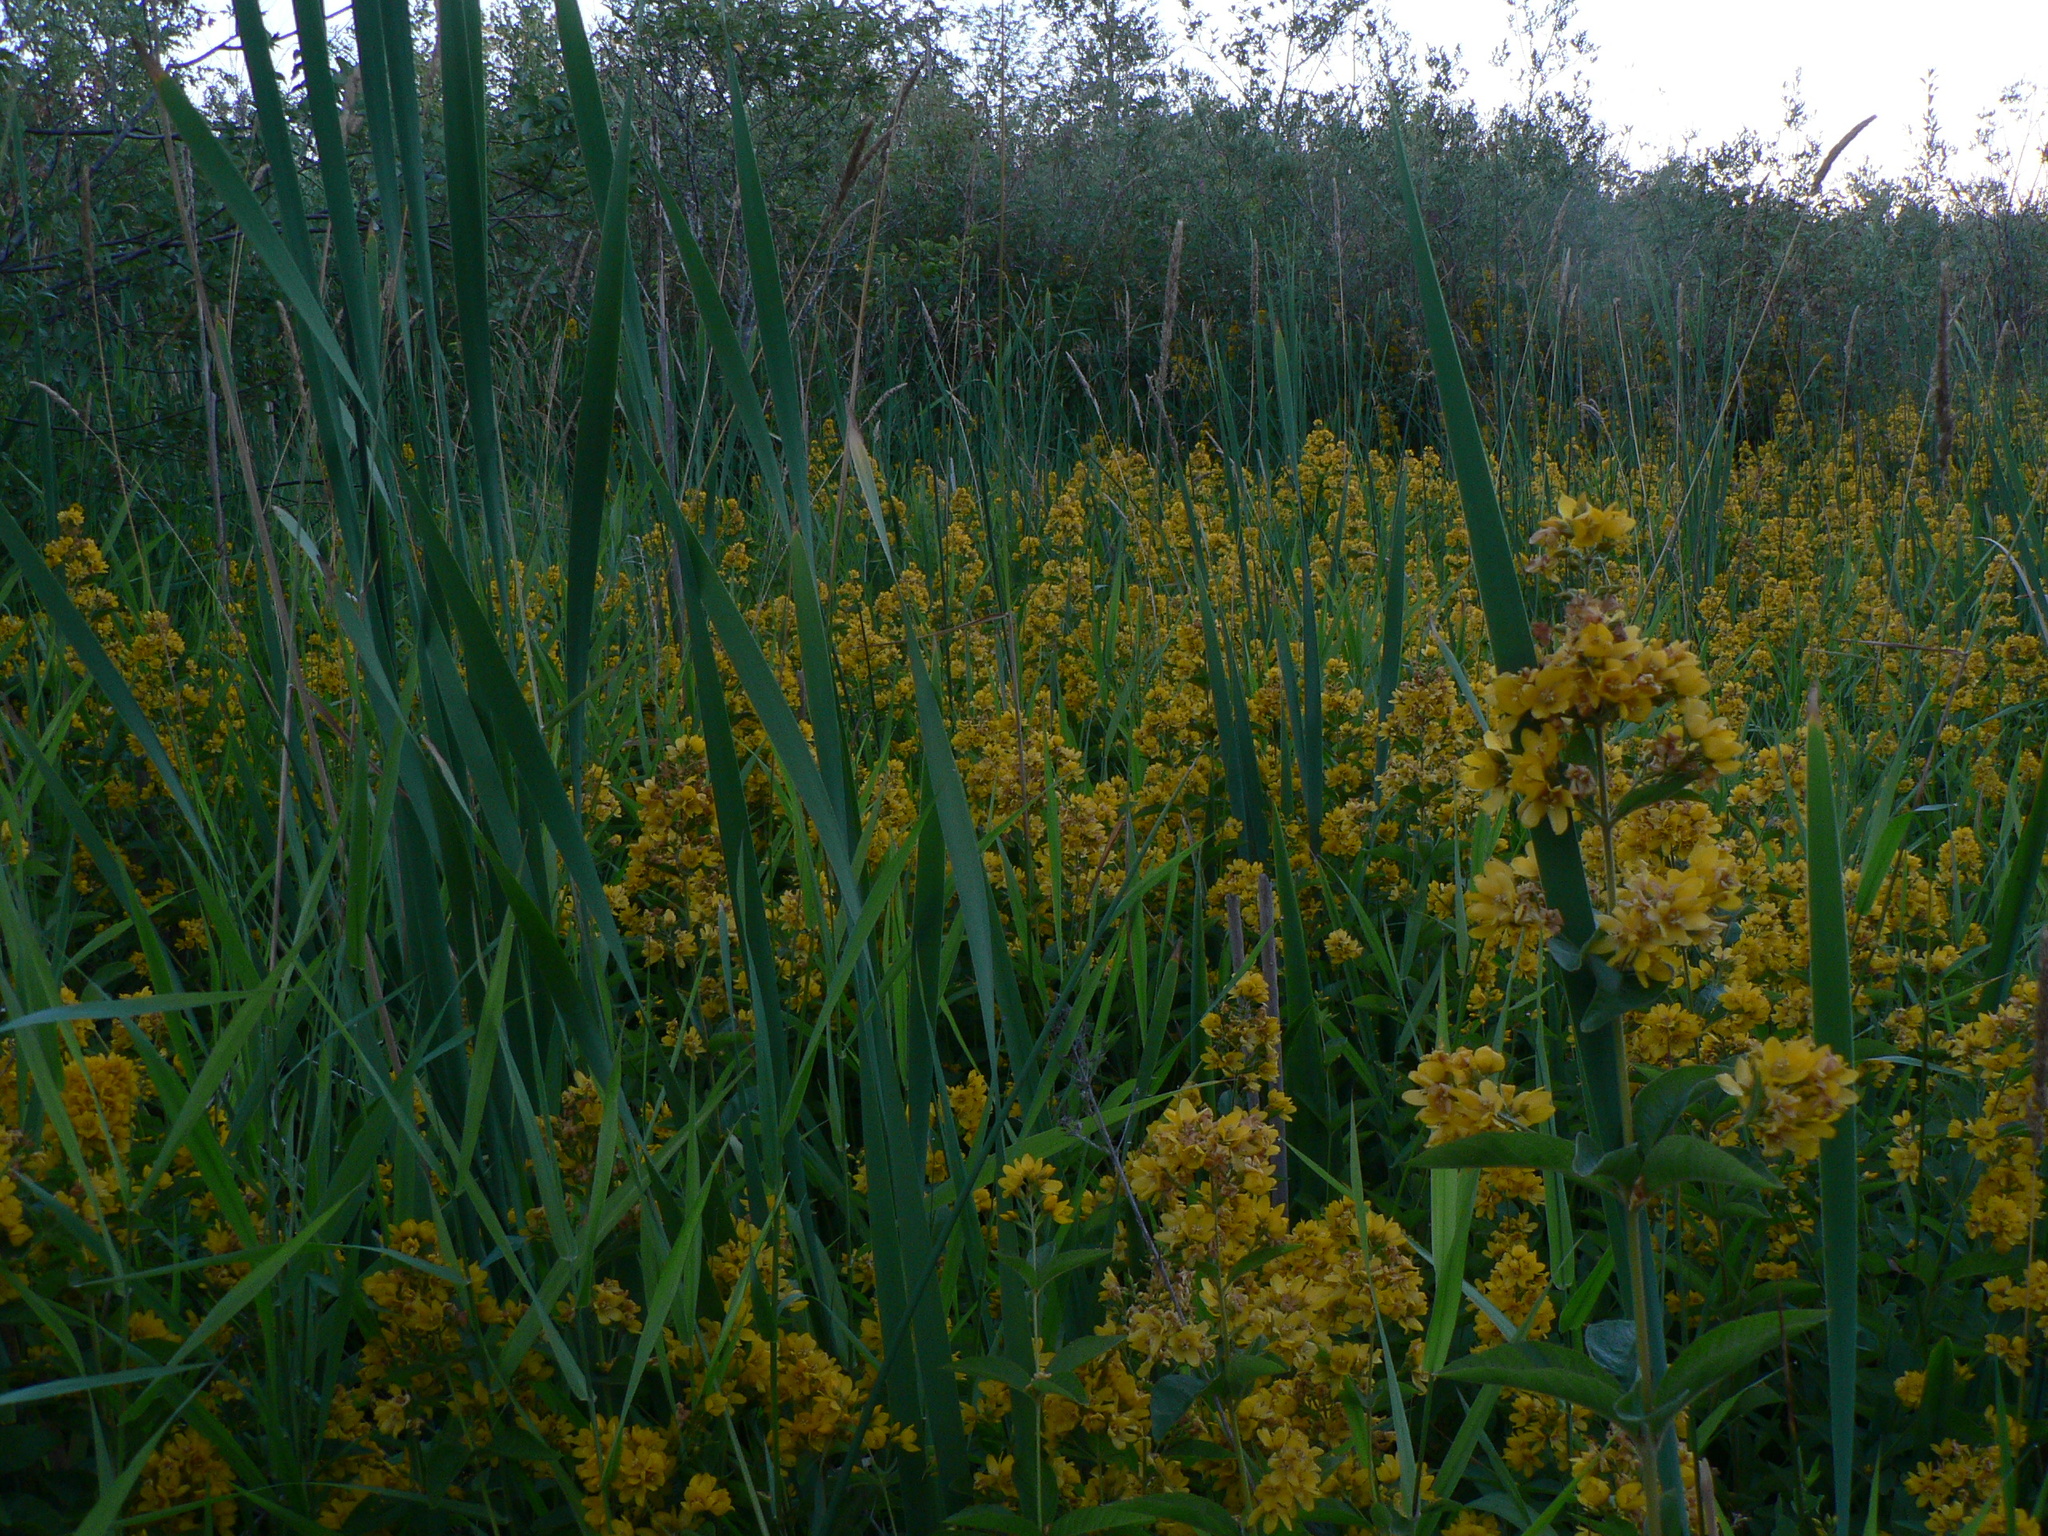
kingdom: Plantae
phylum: Tracheophyta
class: Magnoliopsida
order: Ericales
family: Primulaceae
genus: Lysimachia
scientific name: Lysimachia vulgaris
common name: Yellow loosestrife
